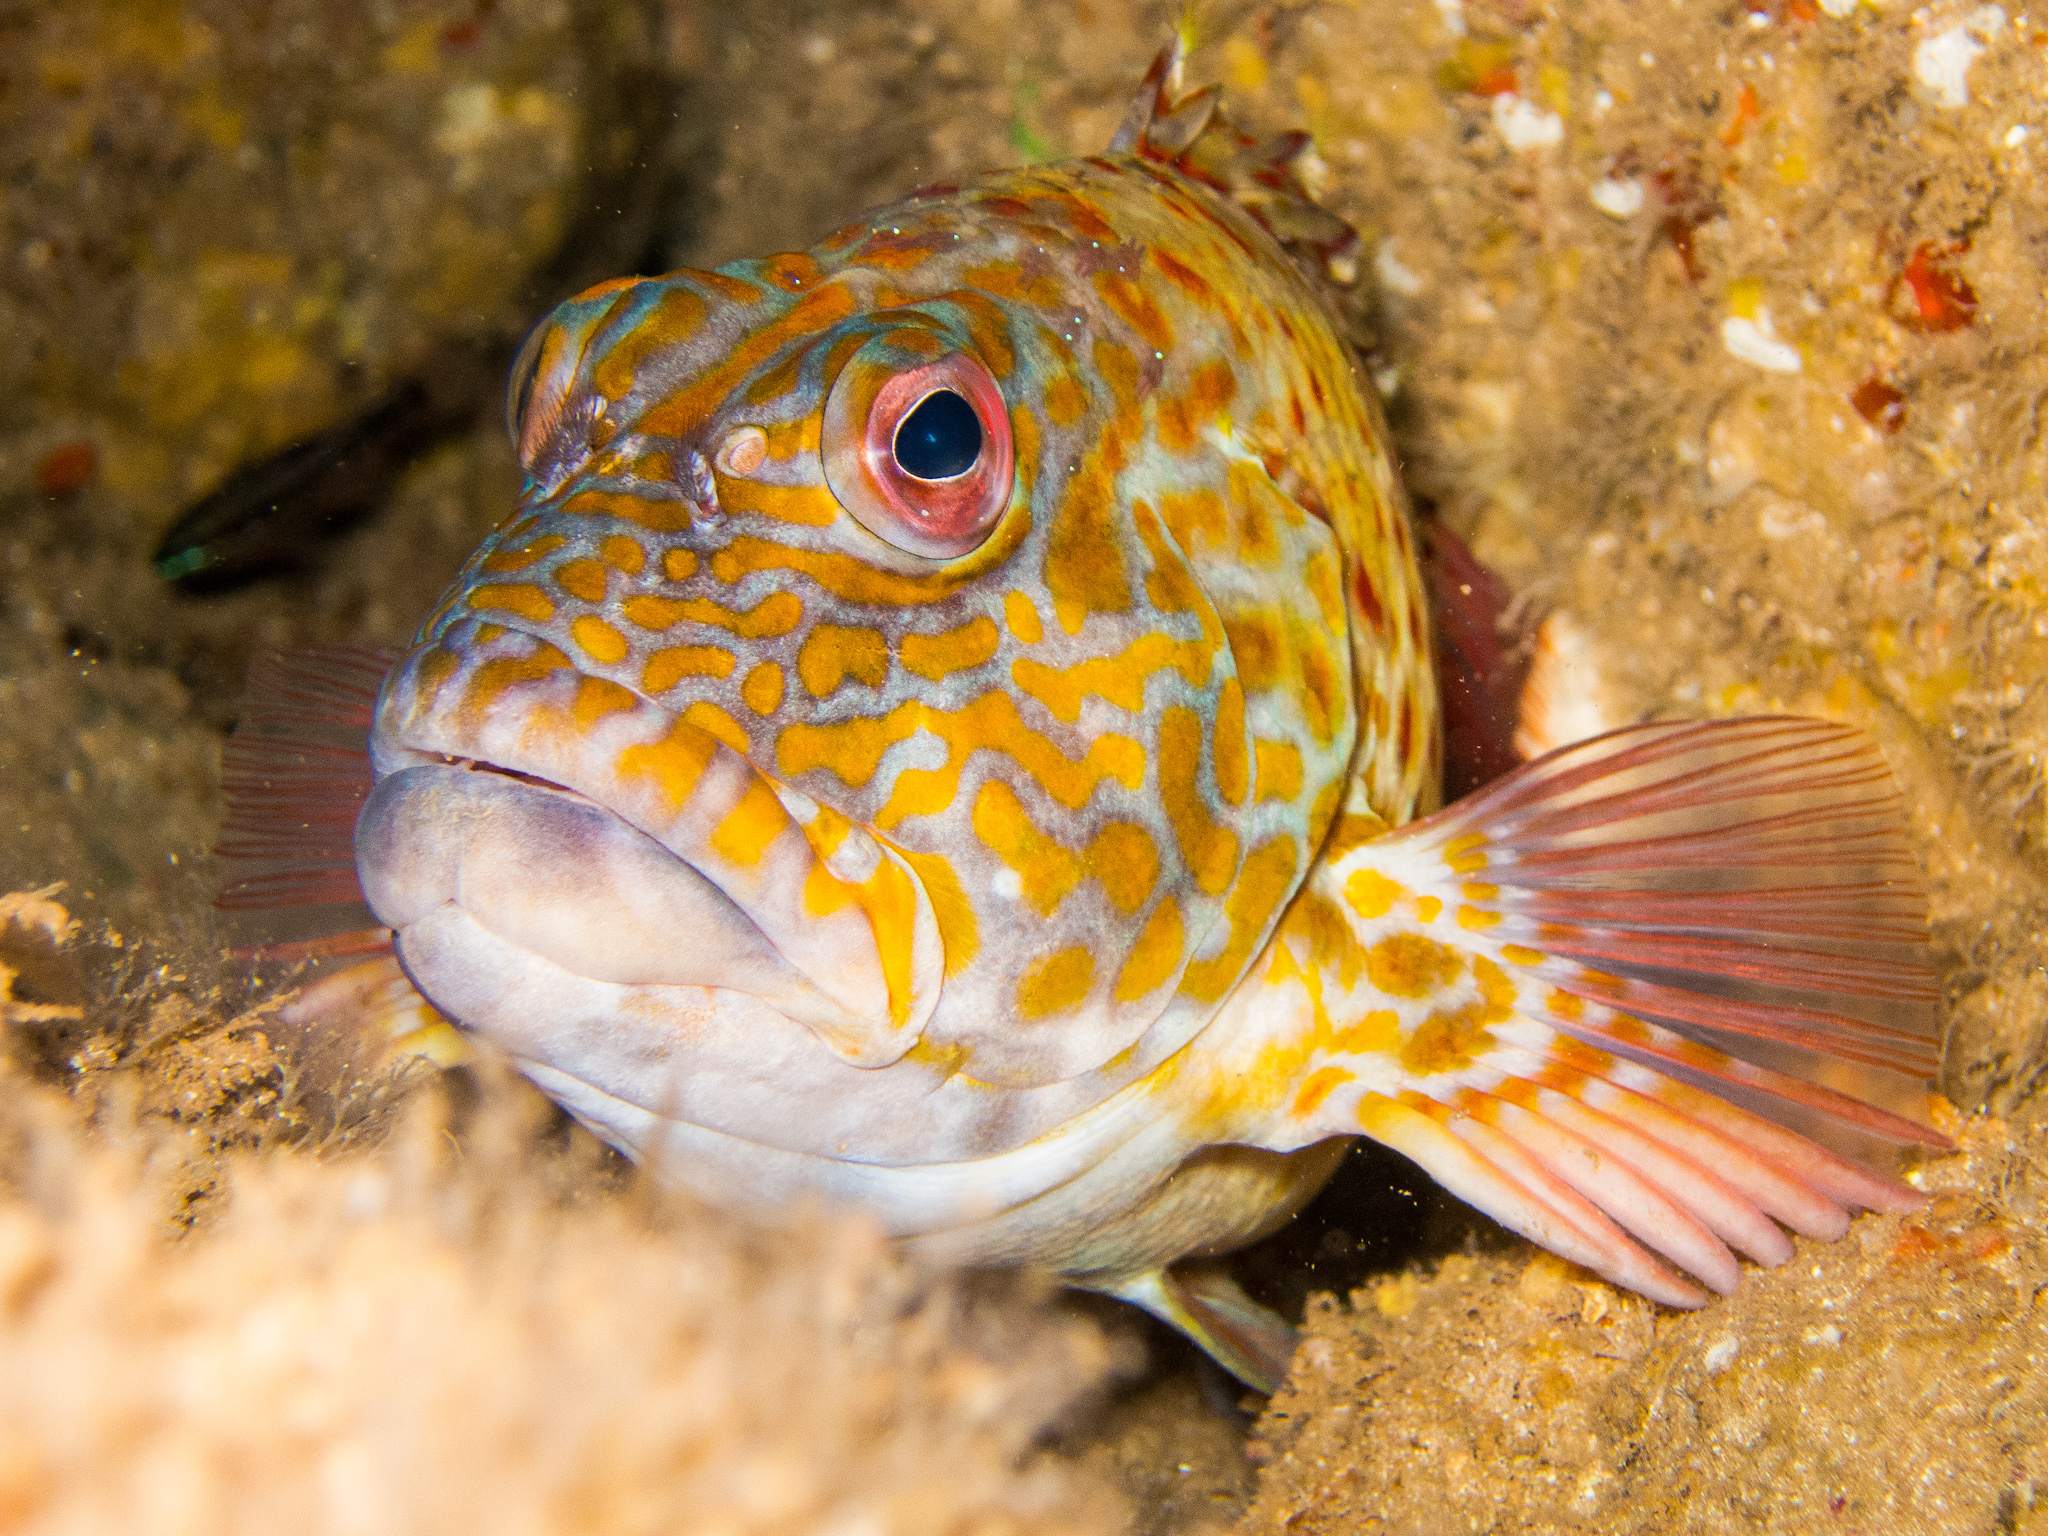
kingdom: Animalia
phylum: Chordata
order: Perciformes
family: Cirrhitidae
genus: Cirrhitus
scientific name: Cirrhitus pinnulatus
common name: Stocky hawkfish
